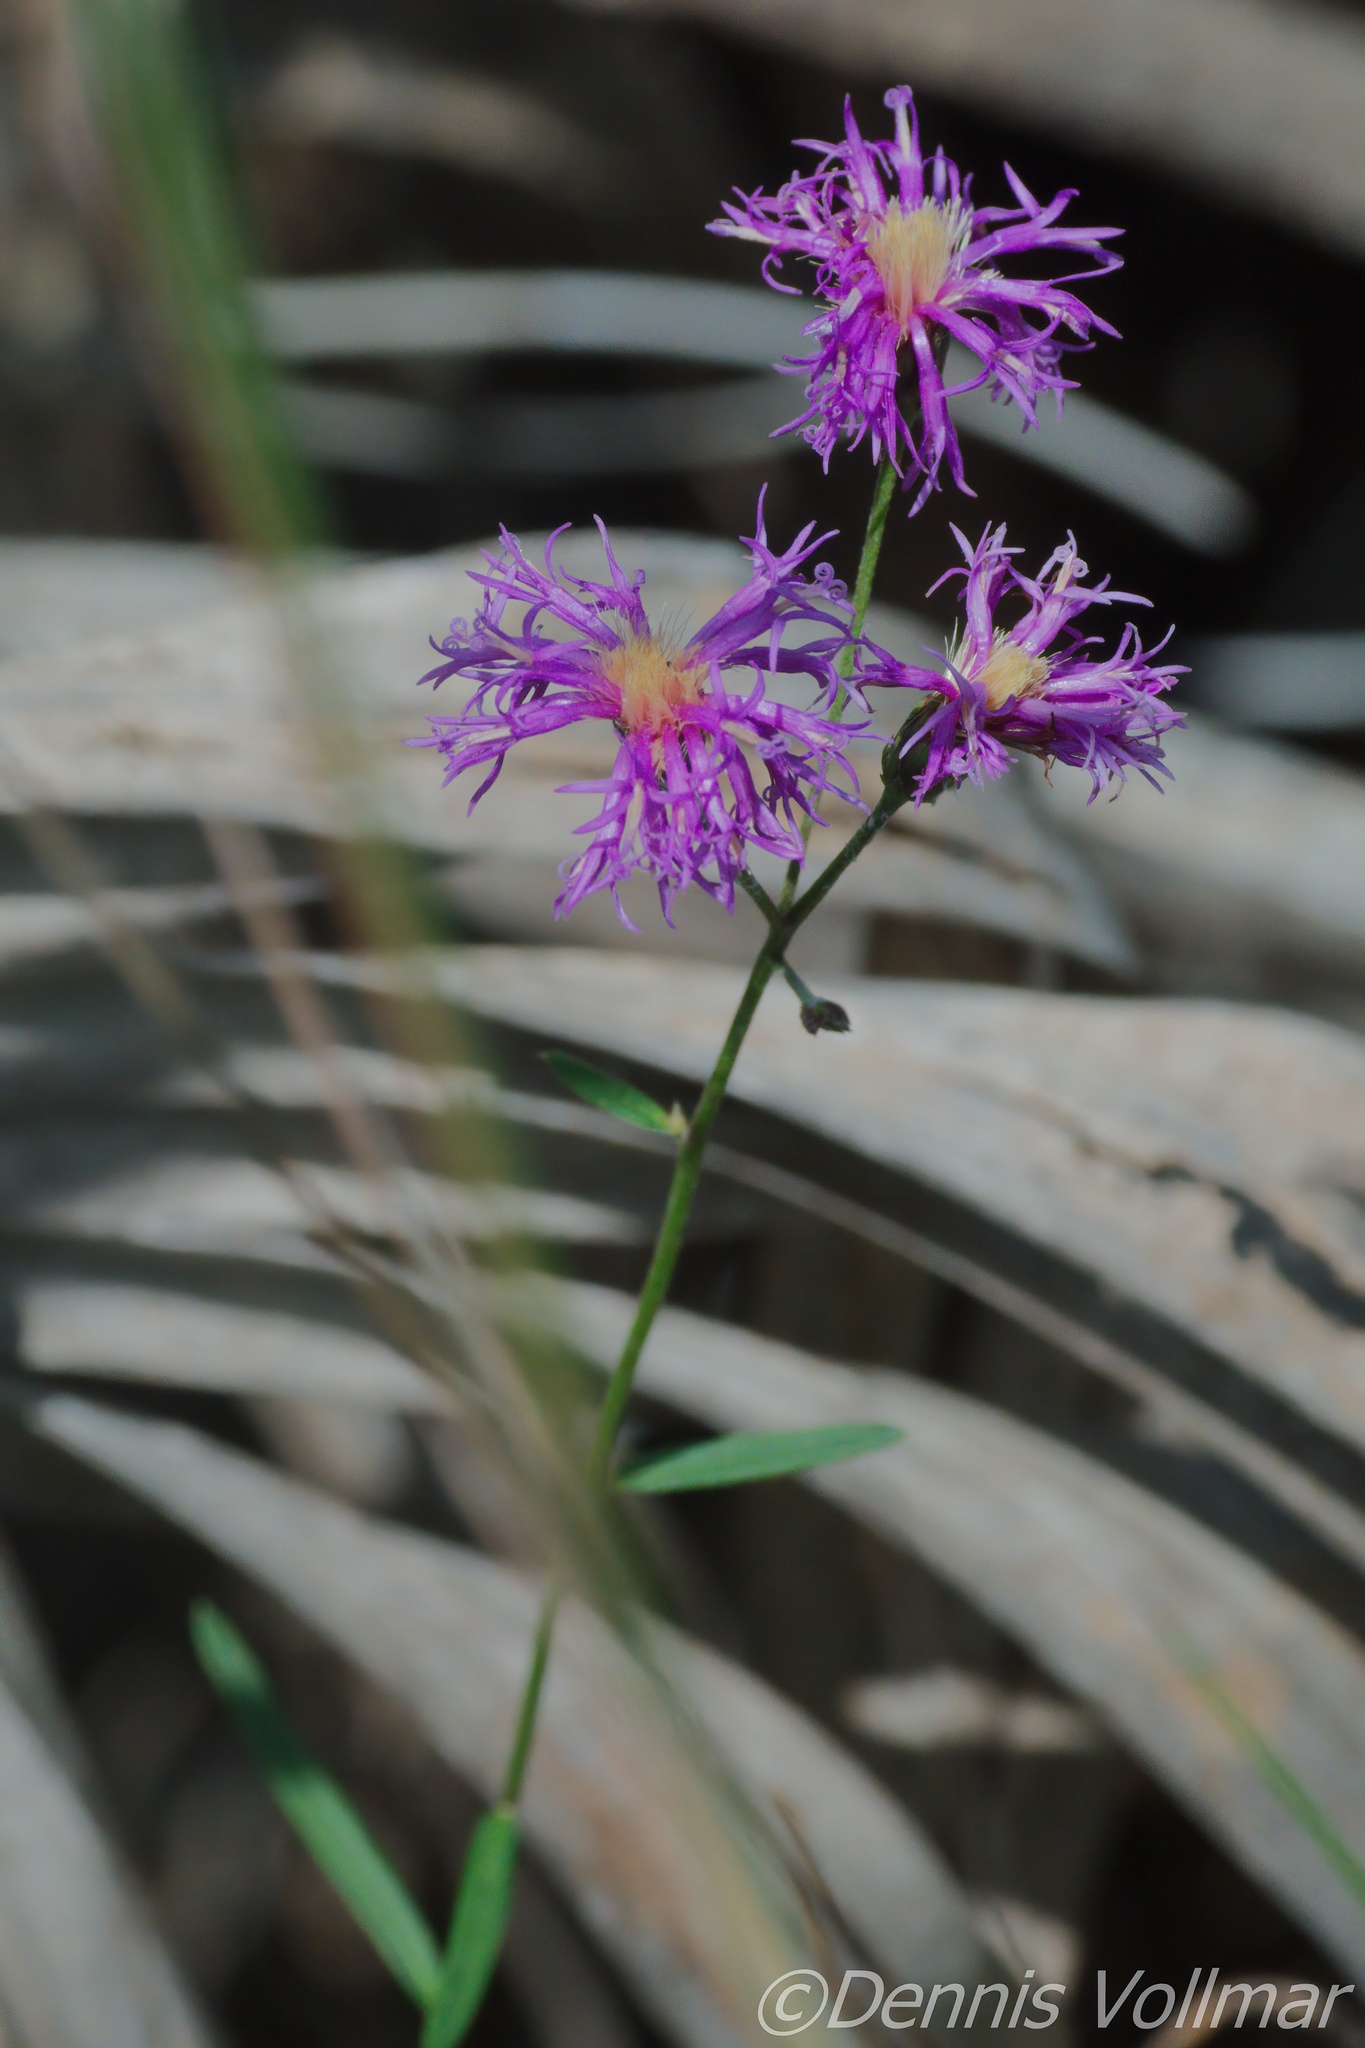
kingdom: Plantae
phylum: Tracheophyta
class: Magnoliopsida
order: Asterales
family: Asteraceae
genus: Vernonia
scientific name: Vernonia blodgettii
